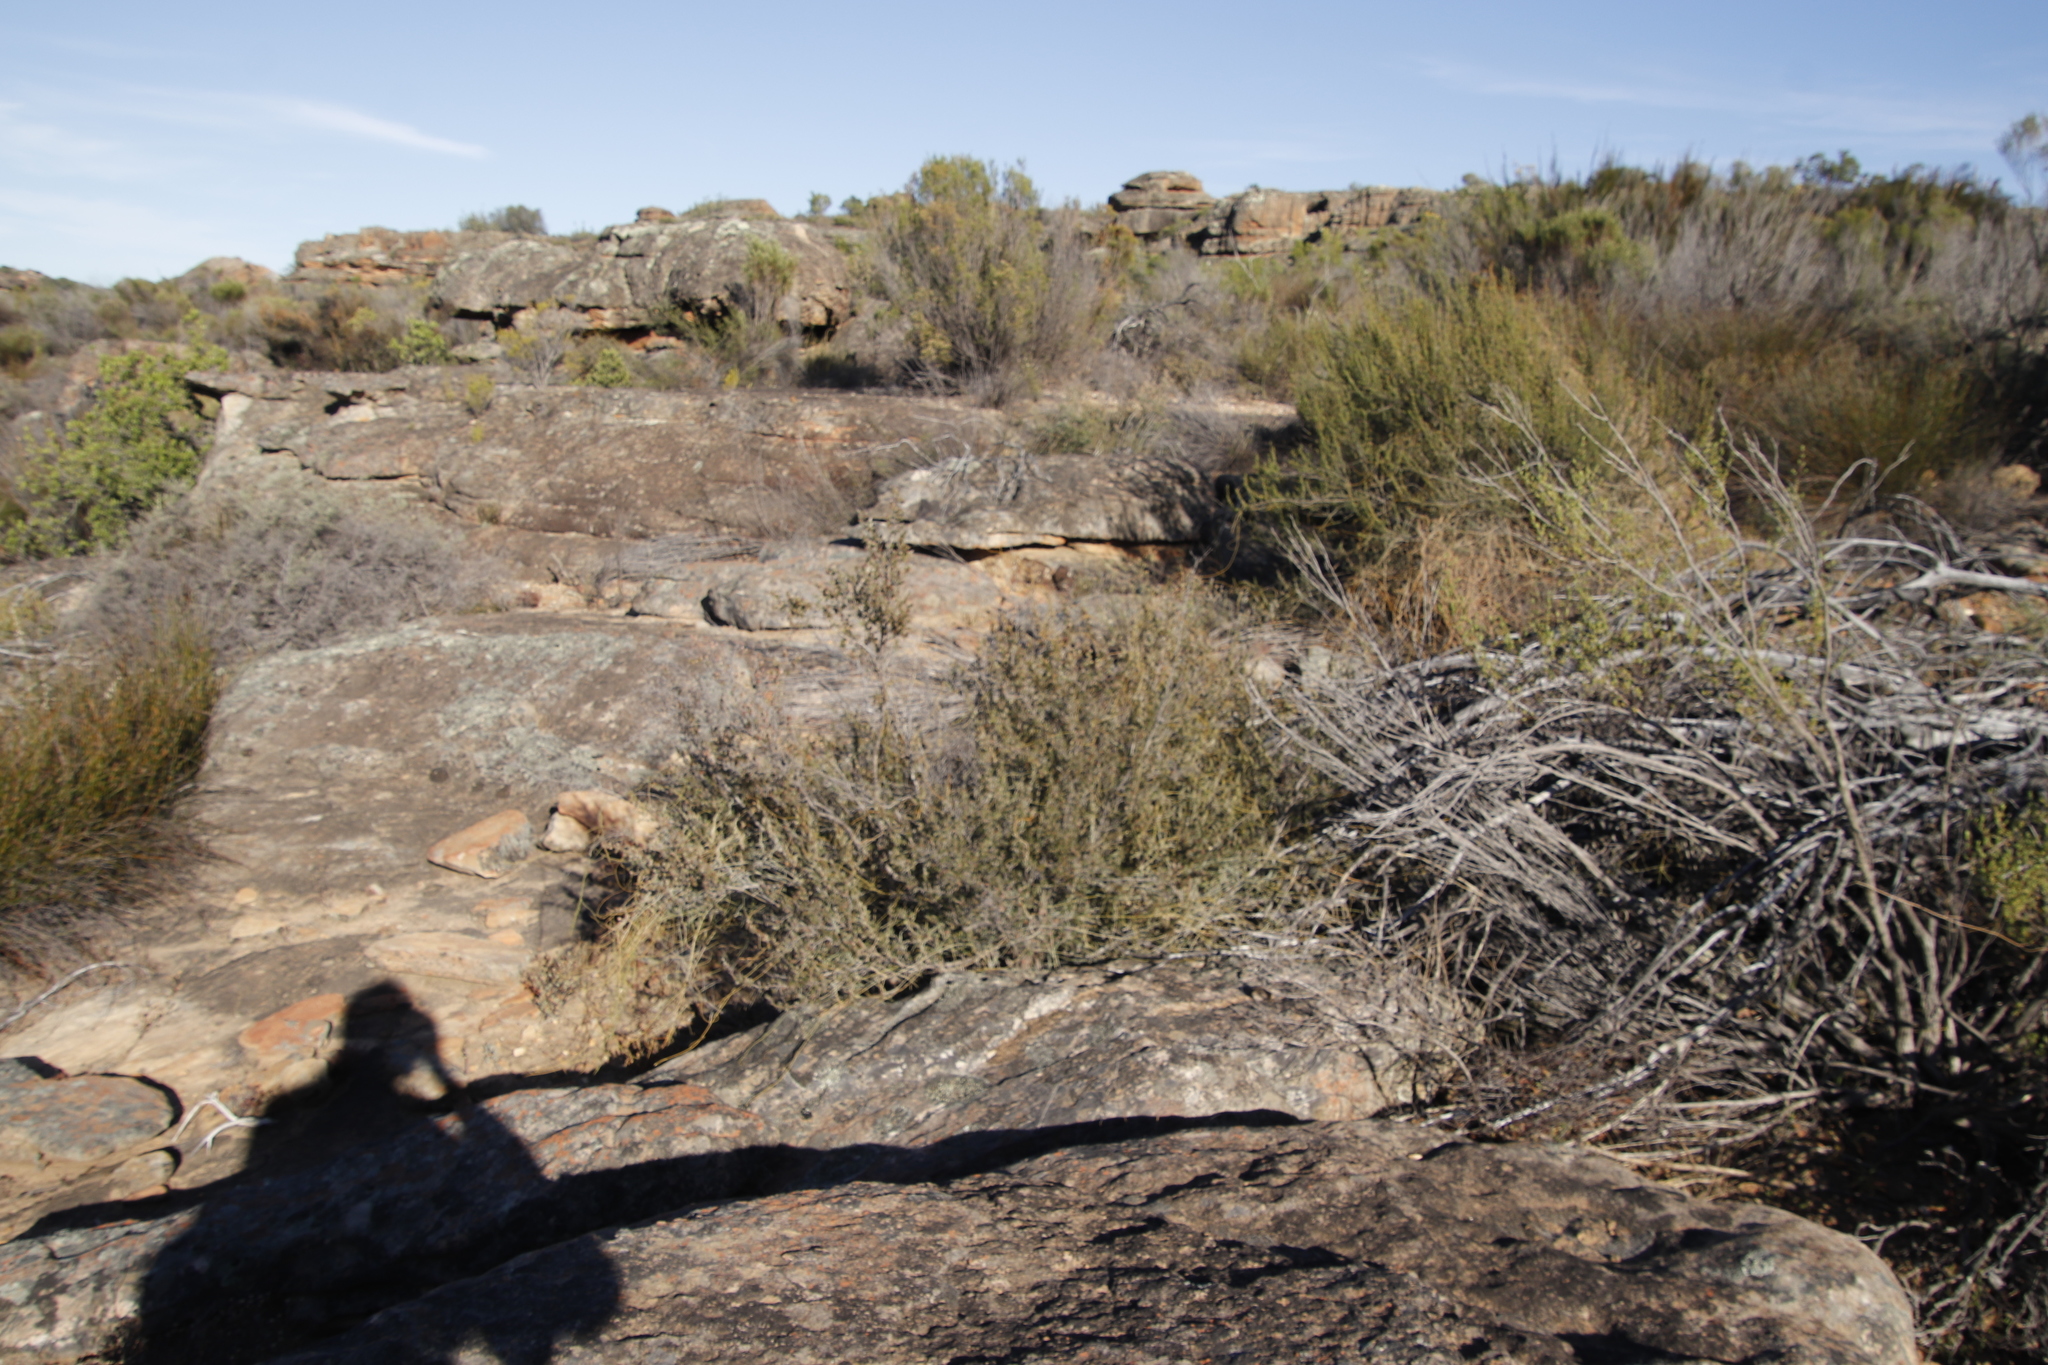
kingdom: Plantae
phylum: Tracheophyta
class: Magnoliopsida
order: Rosales
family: Rosaceae
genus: Cliffortia
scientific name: Cliffortia ruscifolia
